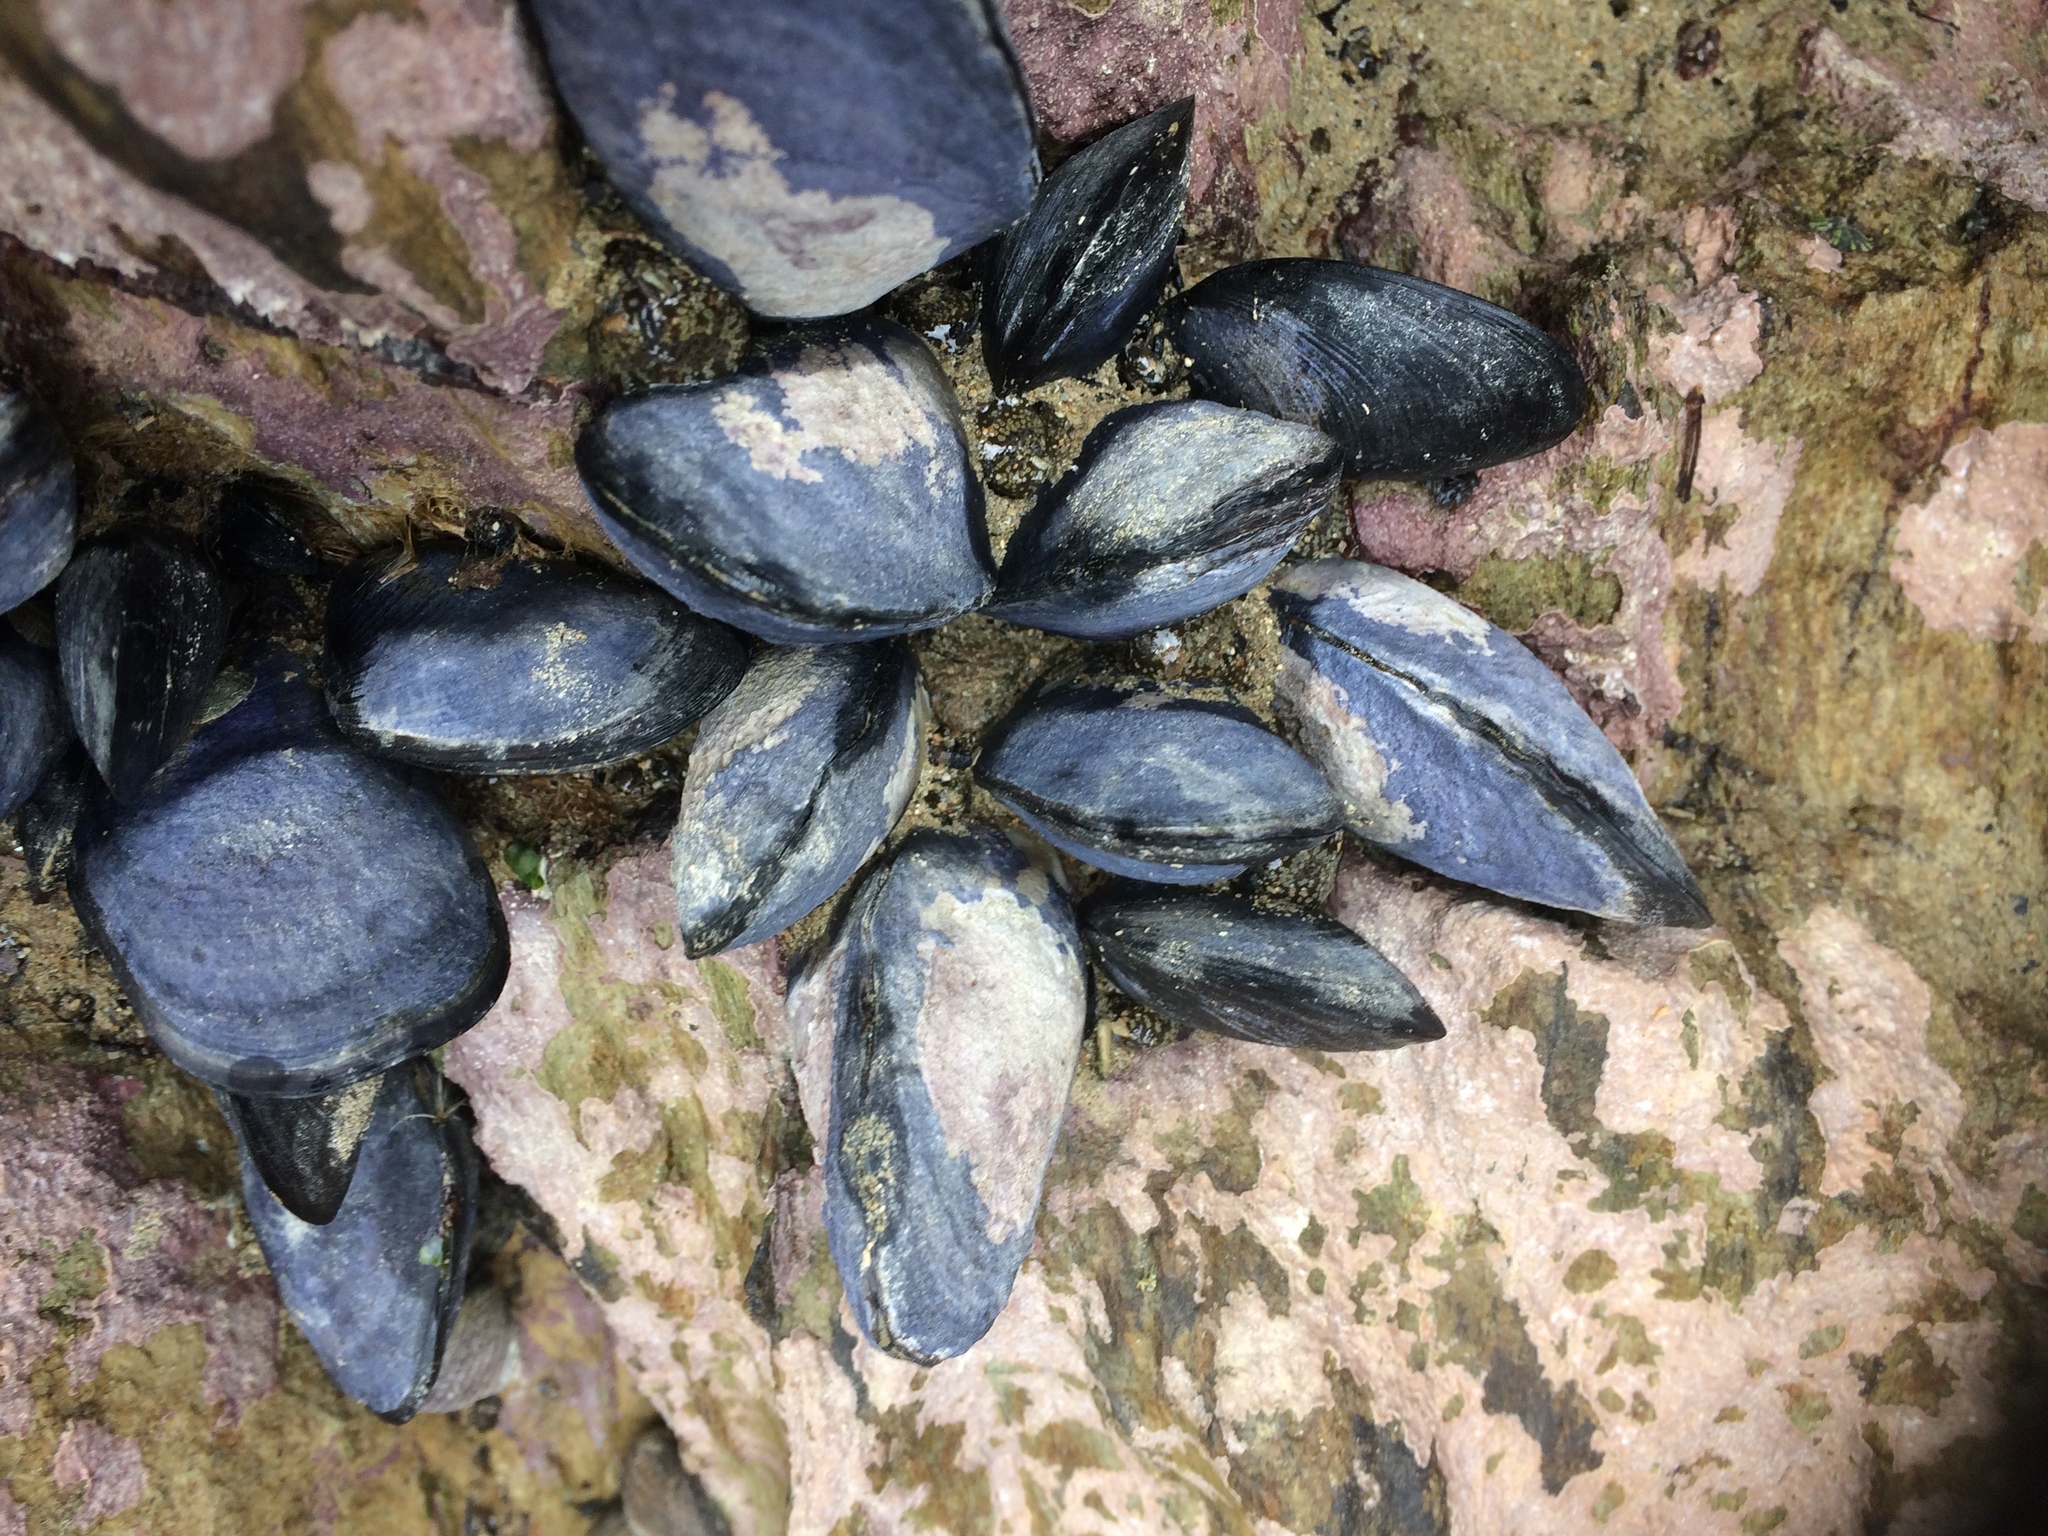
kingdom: Animalia
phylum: Mollusca
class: Bivalvia
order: Mytilida
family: Mytilidae
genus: Mytilus
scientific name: Mytilus planulatus
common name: Australian mussel
